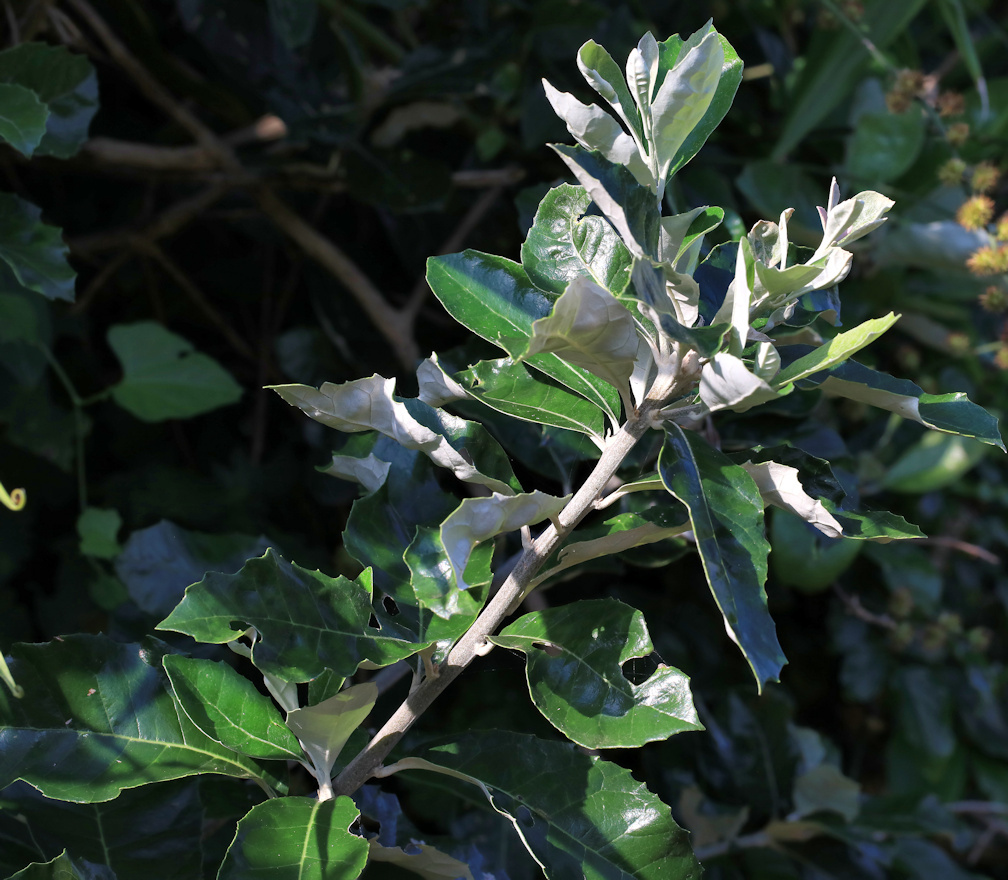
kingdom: Plantae
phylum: Tracheophyta
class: Magnoliopsida
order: Asterales
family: Asteraceae
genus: Brachylaena
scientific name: Brachylaena discolor
